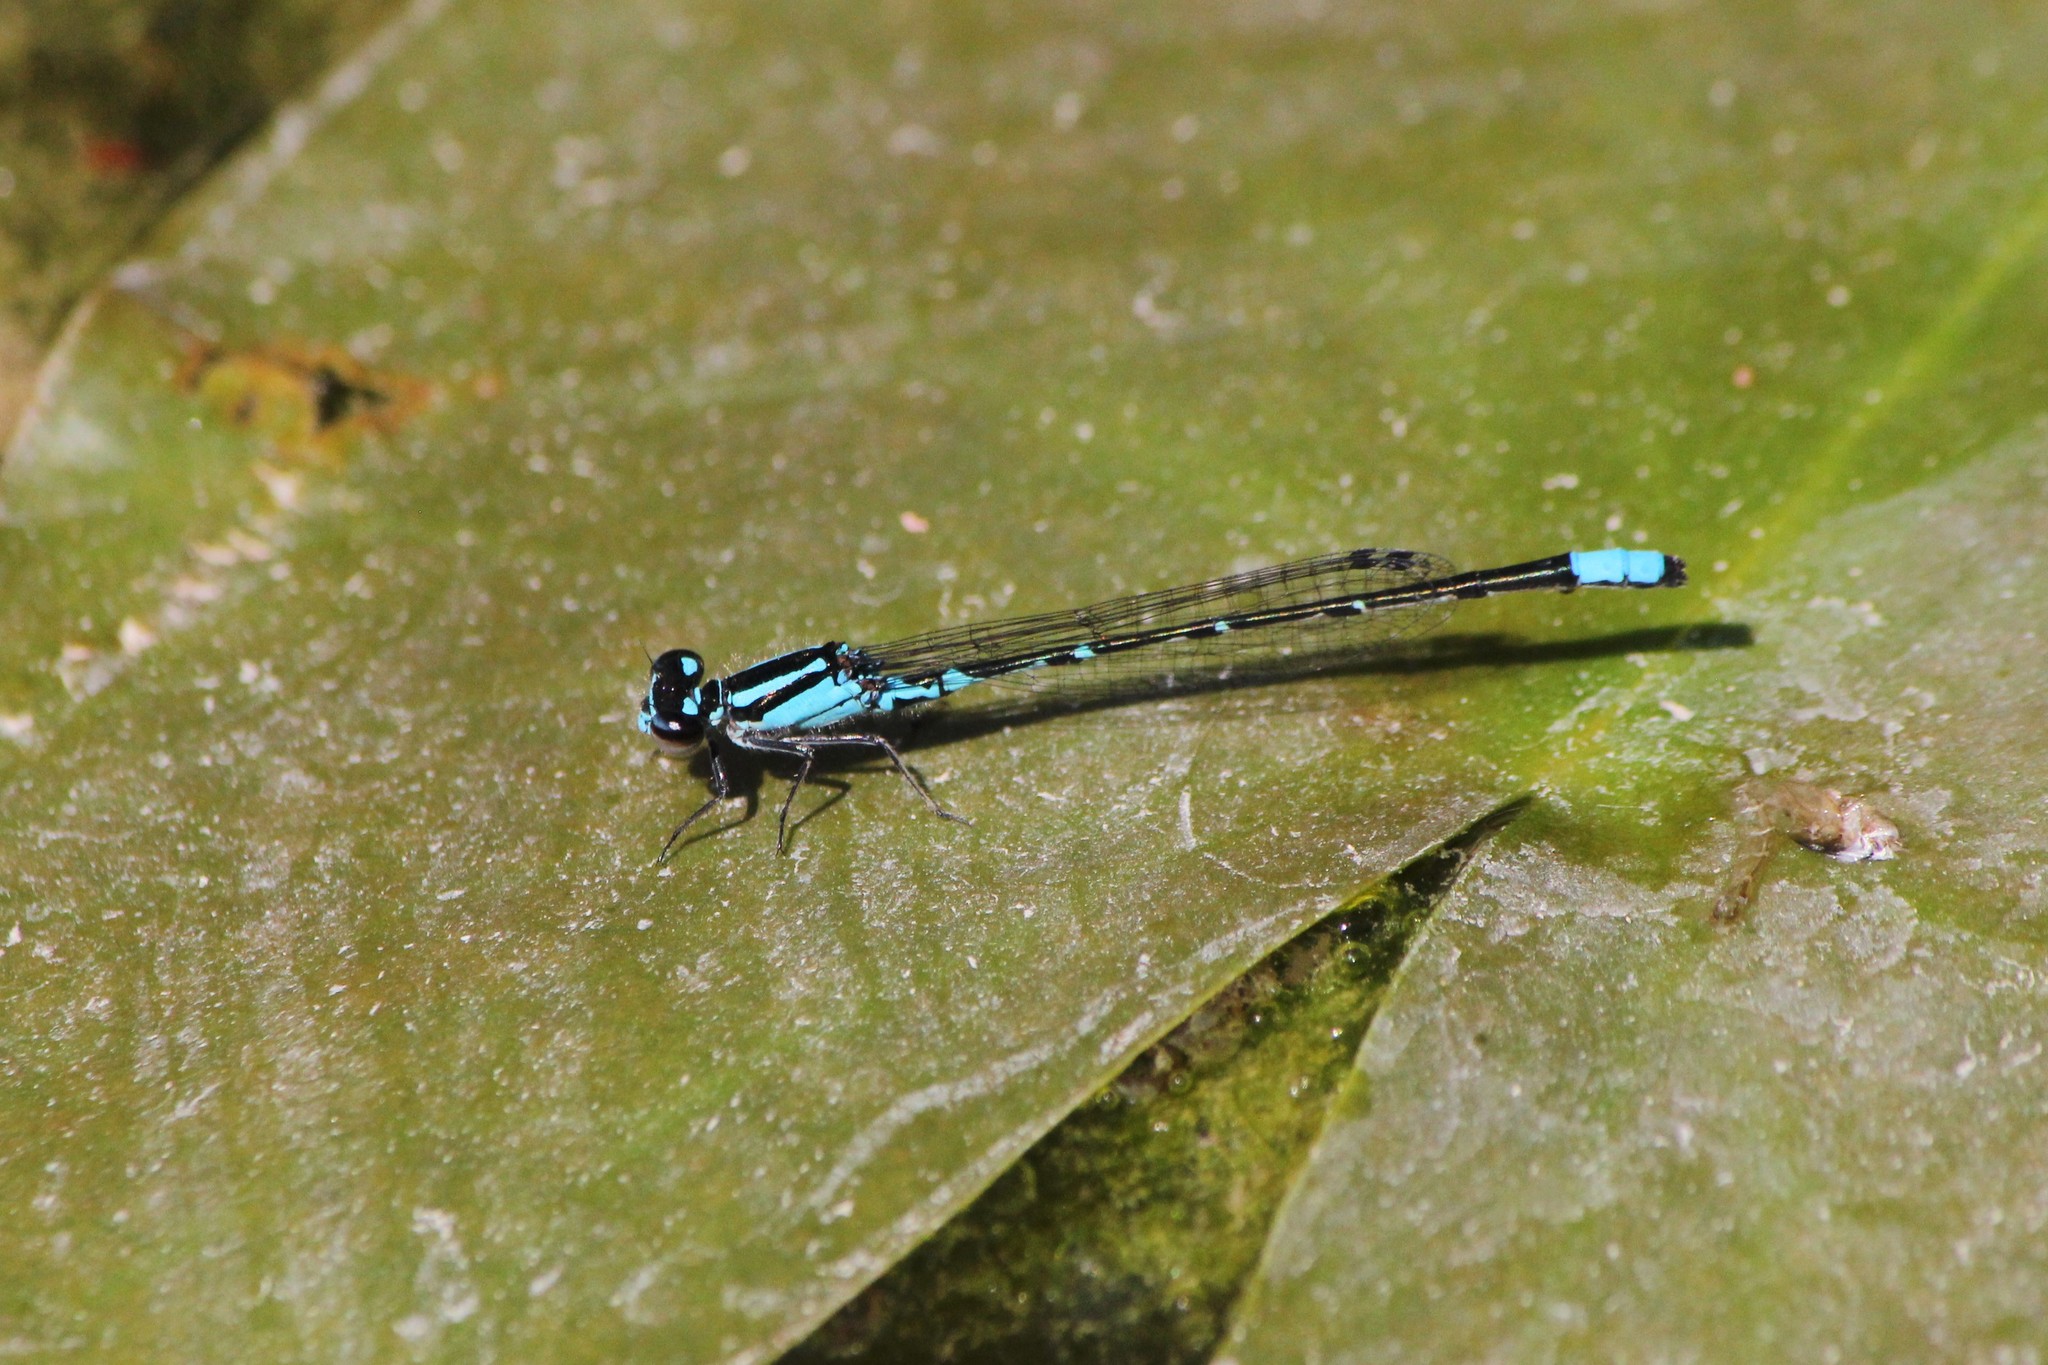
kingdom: Animalia
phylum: Arthropoda
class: Insecta
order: Odonata
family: Coenagrionidae
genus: Enallagma
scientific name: Enallagma geminatum
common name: Skimming bluet
